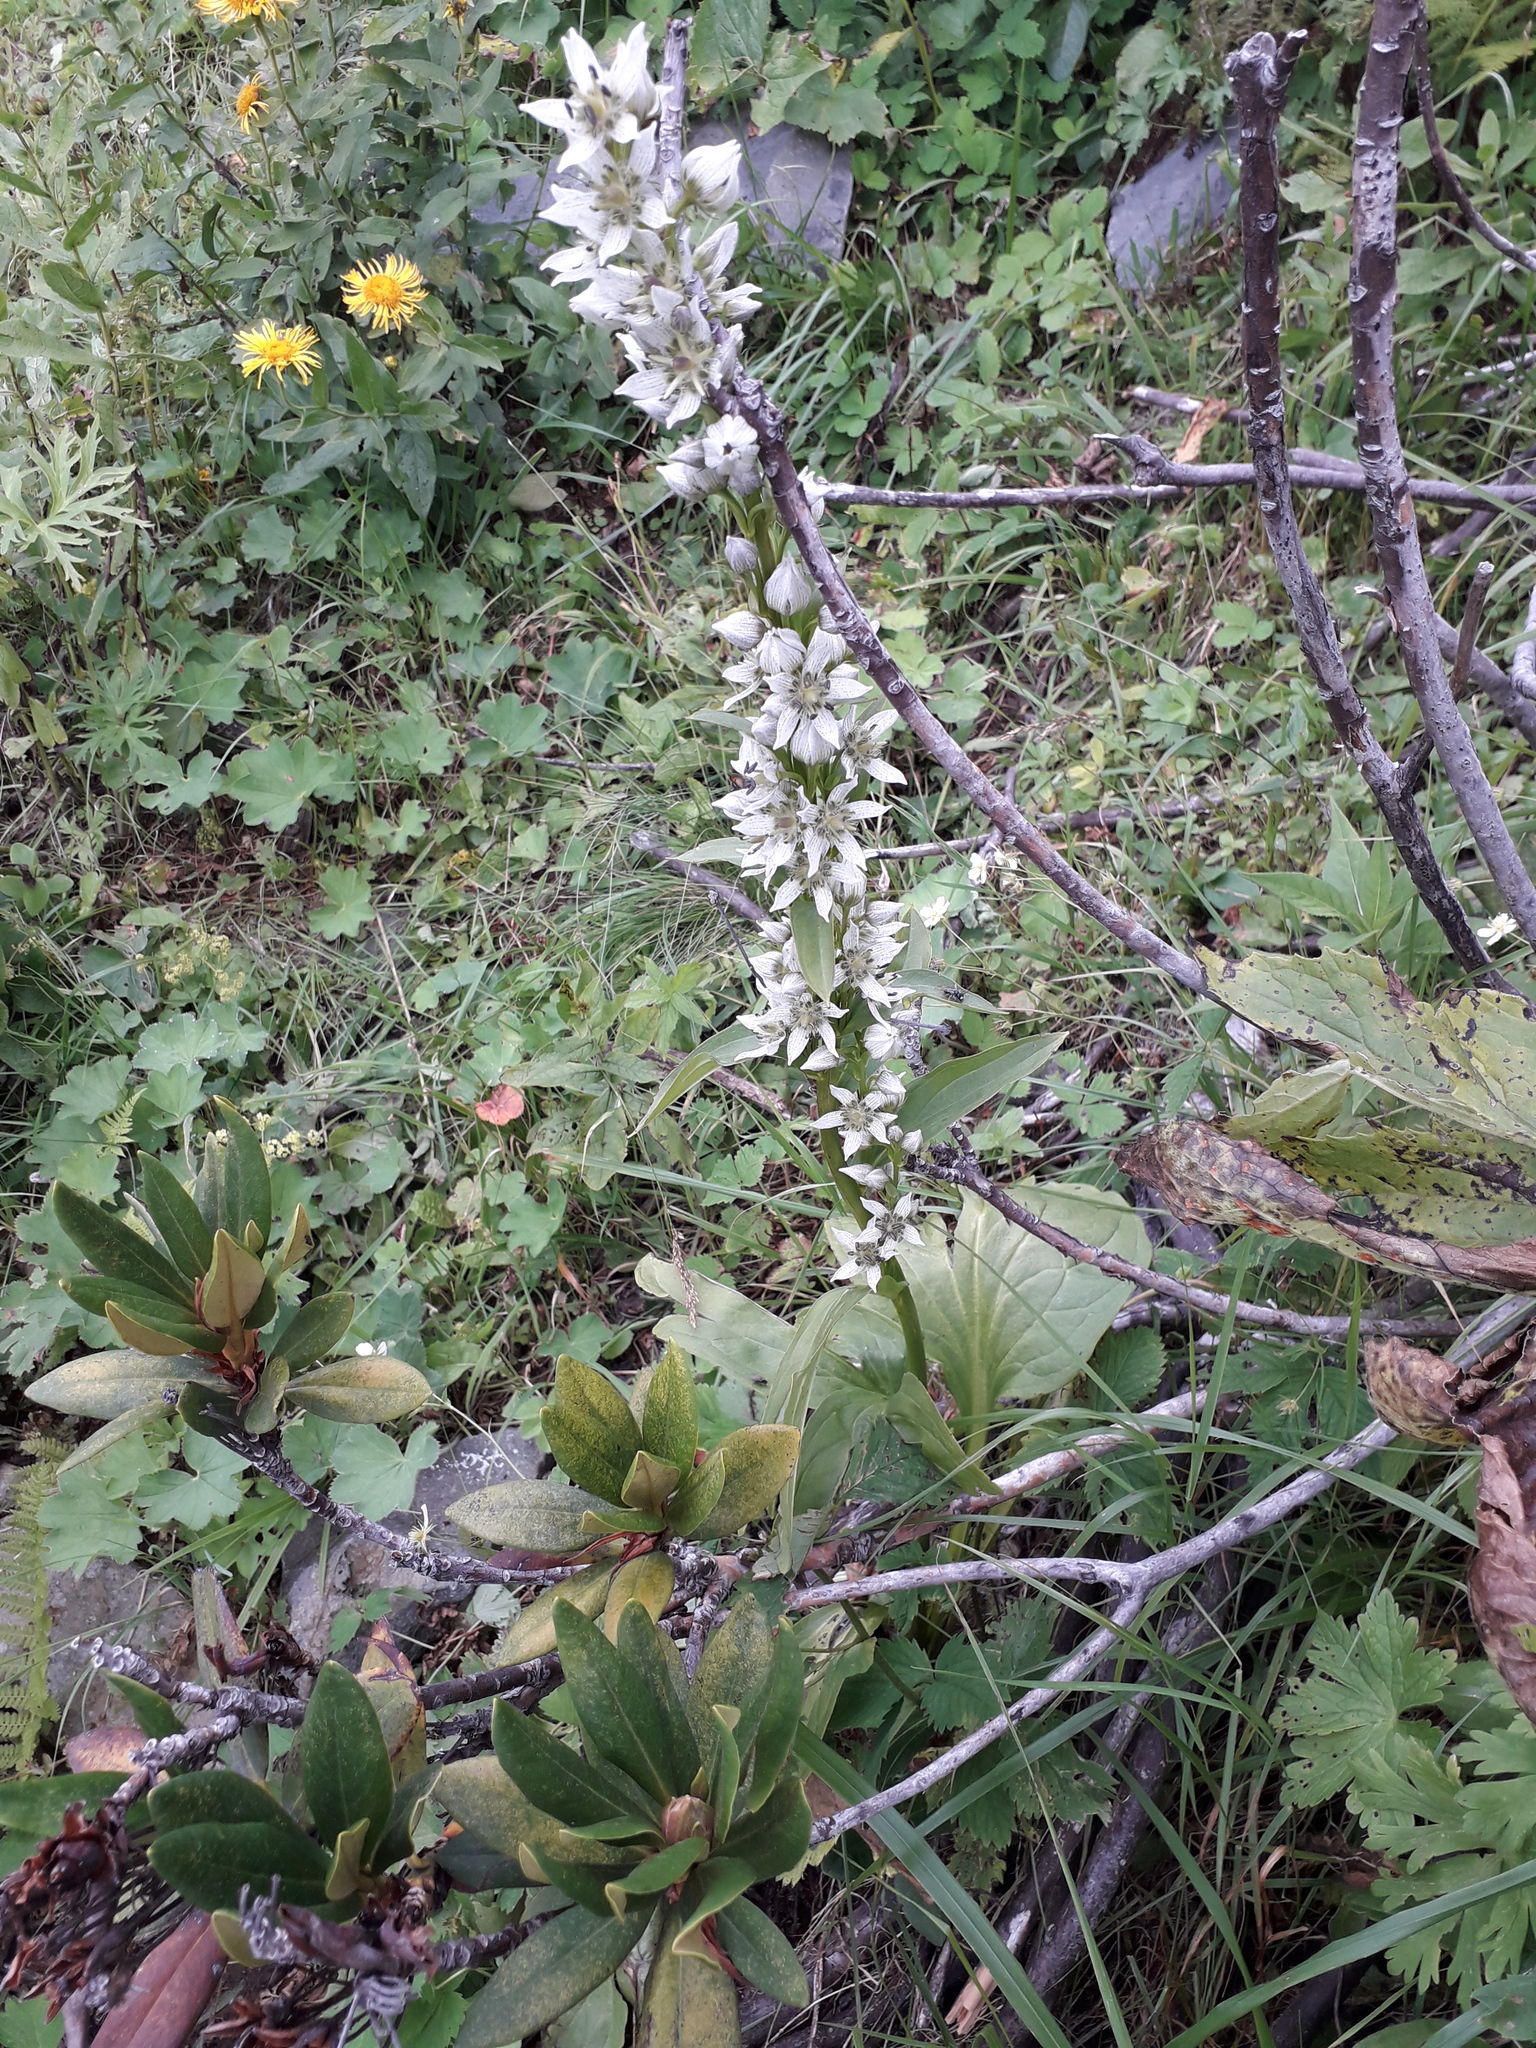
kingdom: Plantae
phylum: Tracheophyta
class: Magnoliopsida
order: Gentianales
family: Gentianaceae
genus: Swertia
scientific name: Swertia iberica
